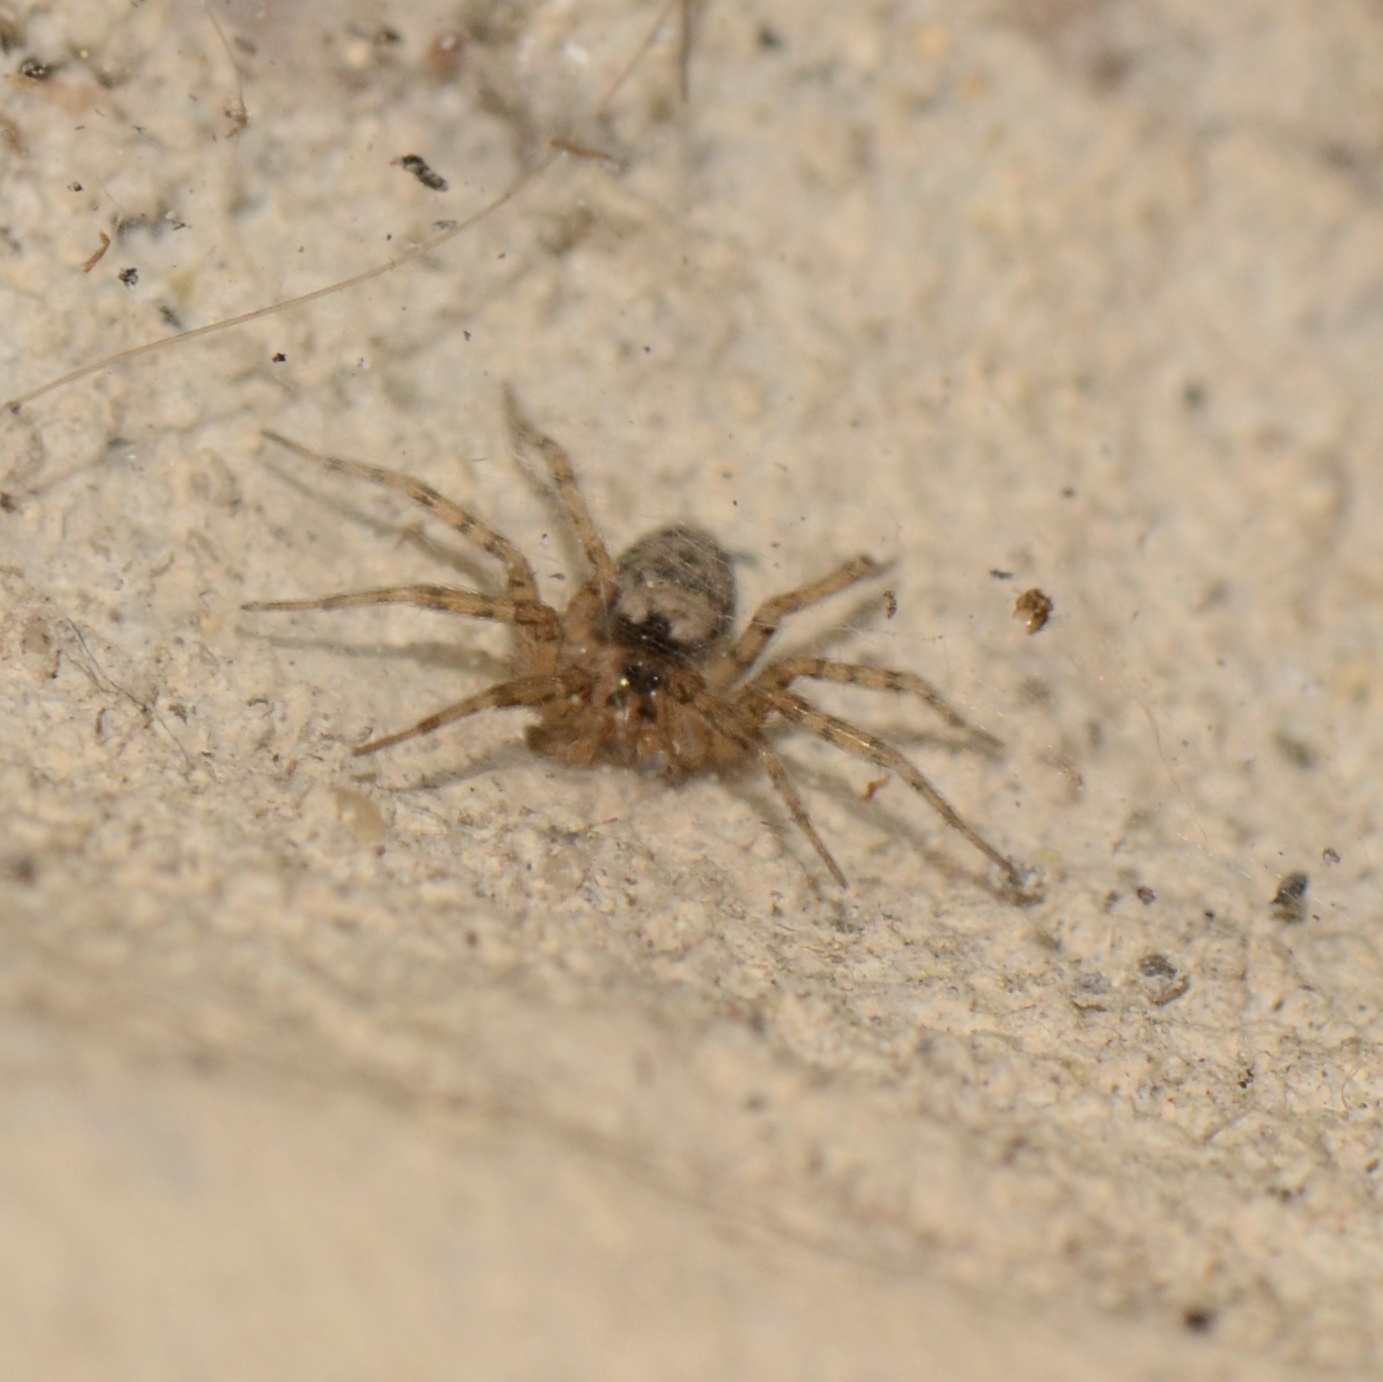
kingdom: Animalia
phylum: Arthropoda
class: Arachnida
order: Araneae
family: Oecobiidae
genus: Oecobius
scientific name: Oecobius navus
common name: Flatmesh weaver
